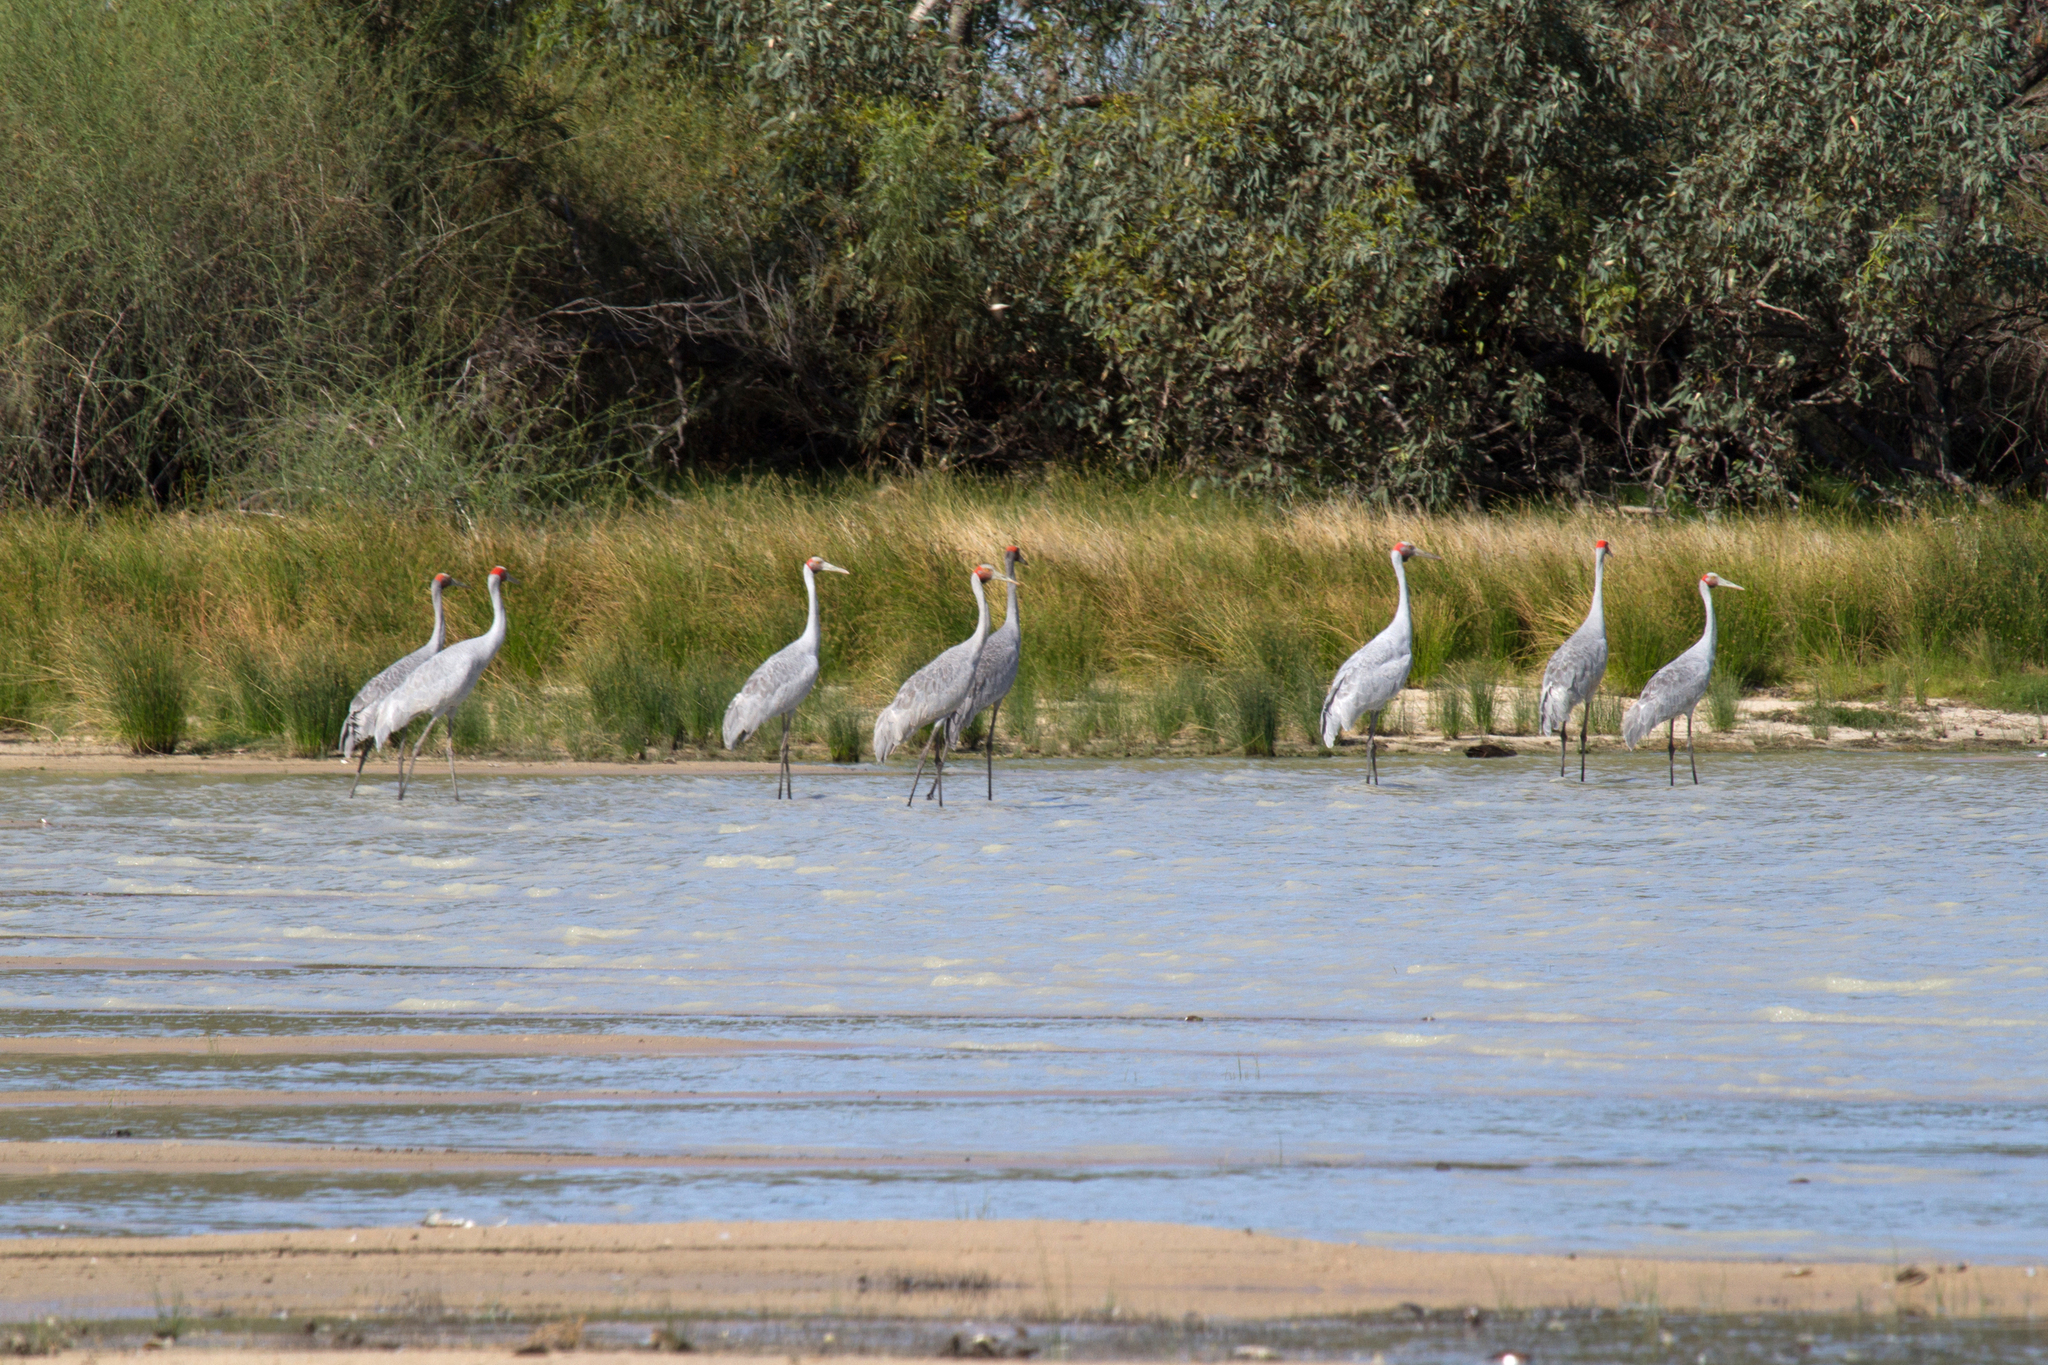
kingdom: Animalia
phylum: Chordata
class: Aves
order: Gruiformes
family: Gruidae
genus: Grus
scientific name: Grus rubicunda
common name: Brolga
